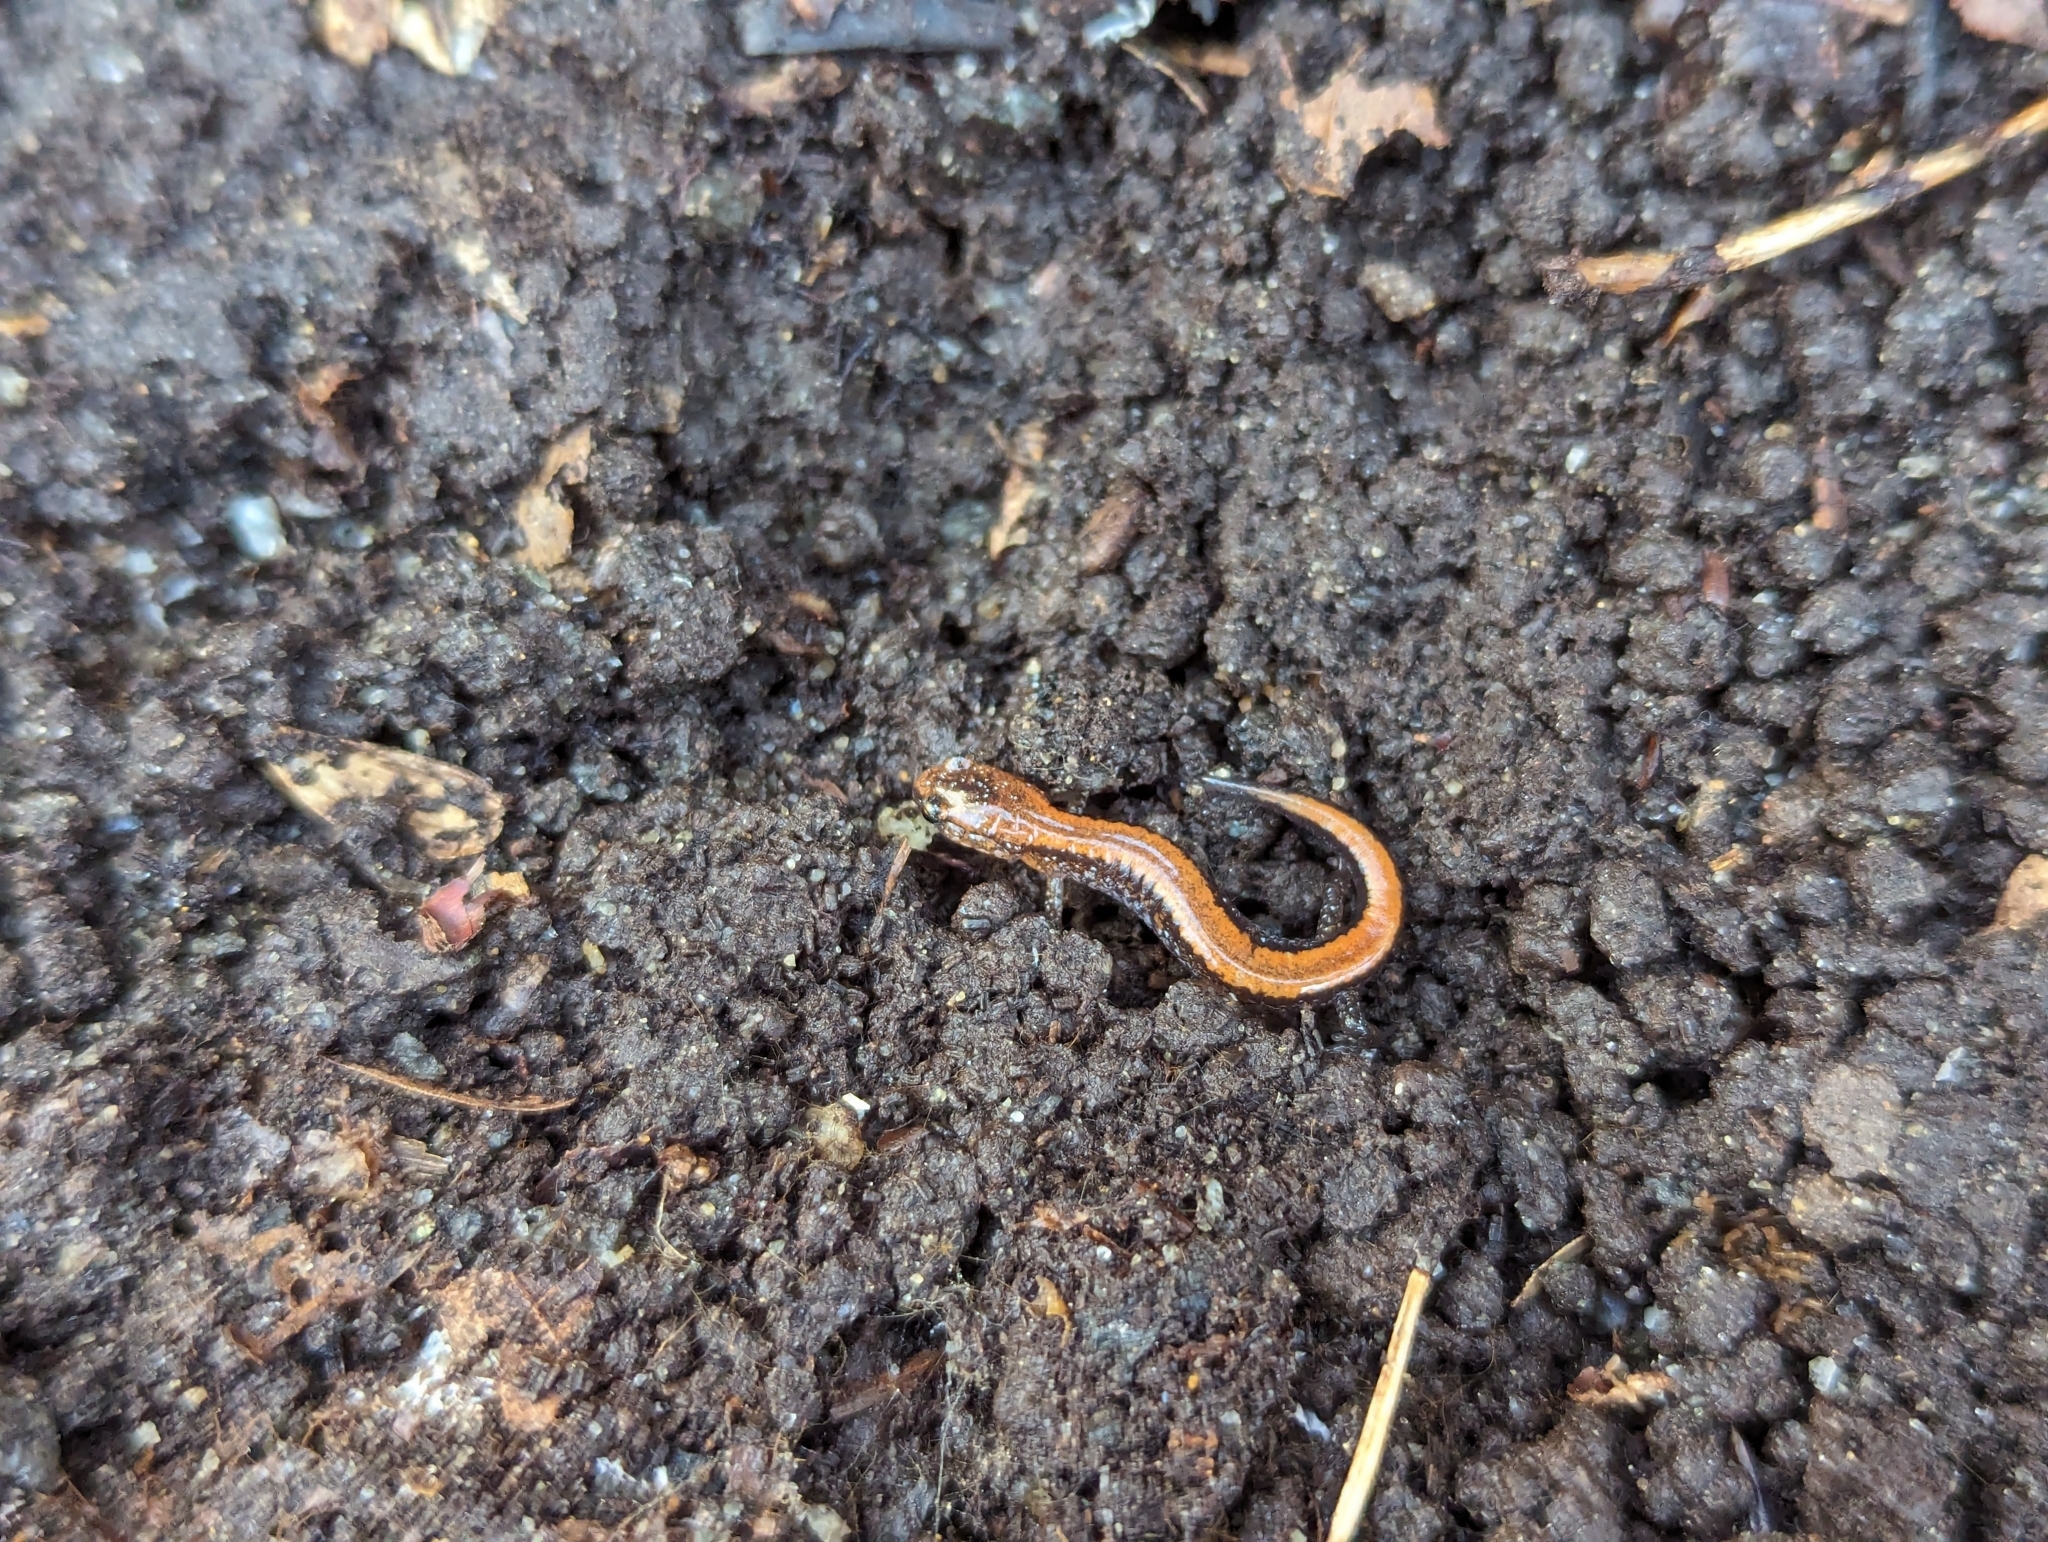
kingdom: Animalia
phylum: Chordata
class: Amphibia
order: Caudata
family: Plethodontidae
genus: Plethodon
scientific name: Plethodon cinereus
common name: Redback salamander
